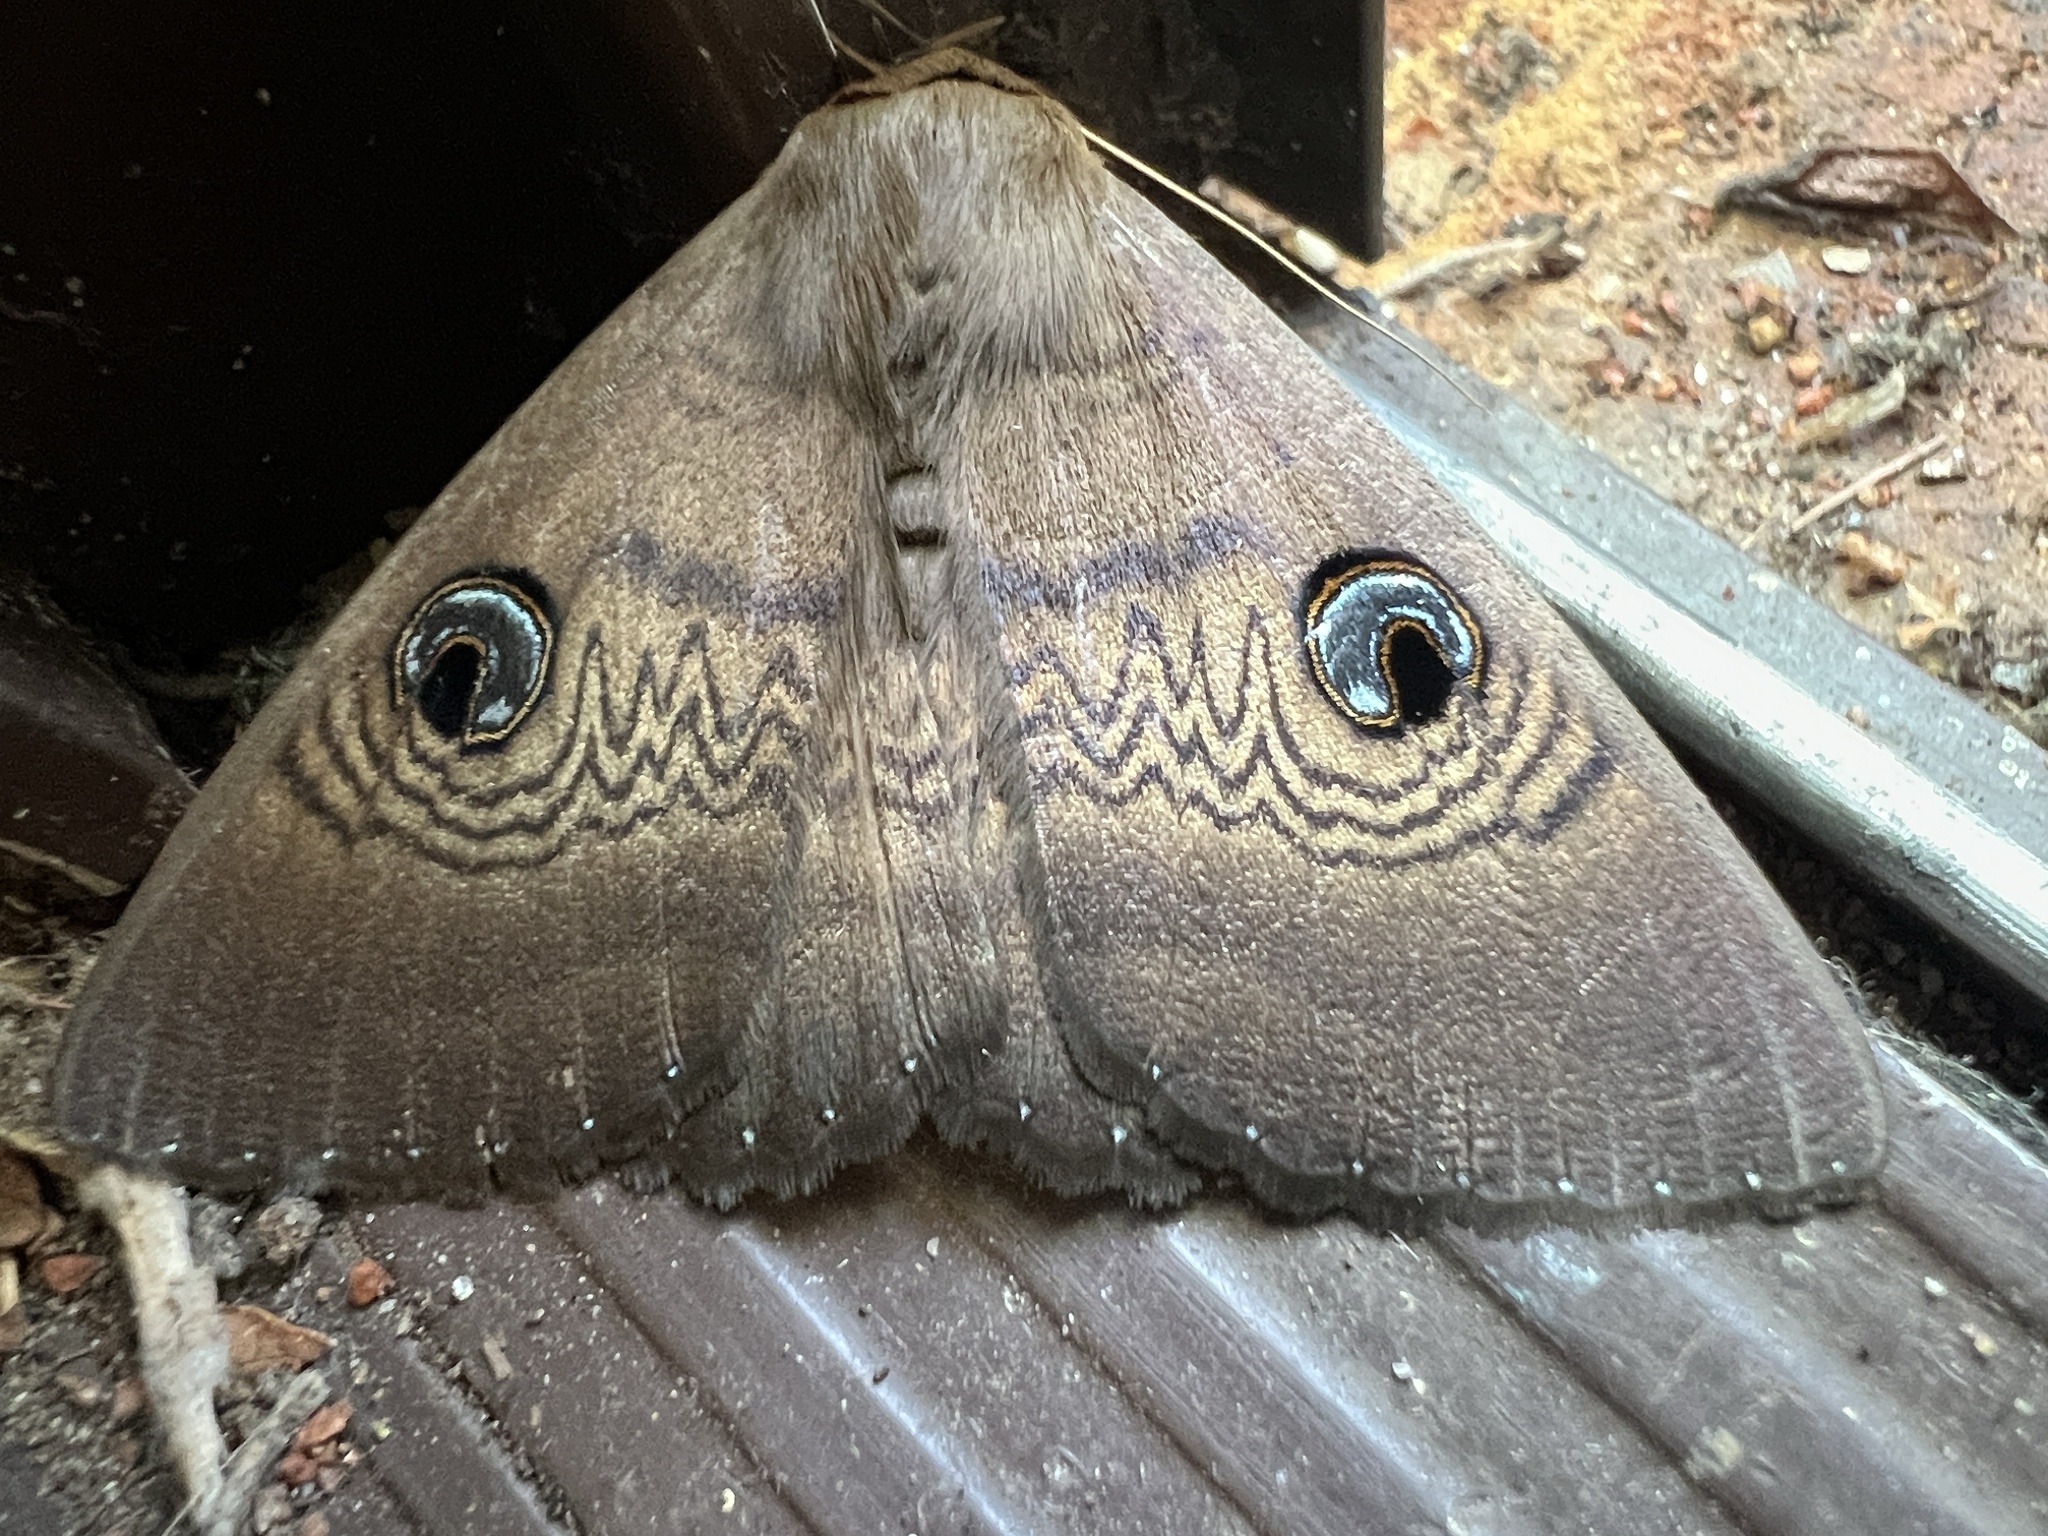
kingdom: Animalia
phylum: Arthropoda
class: Insecta
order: Lepidoptera
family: Erebidae
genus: Dasypodia
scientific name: Dasypodia selenophora
